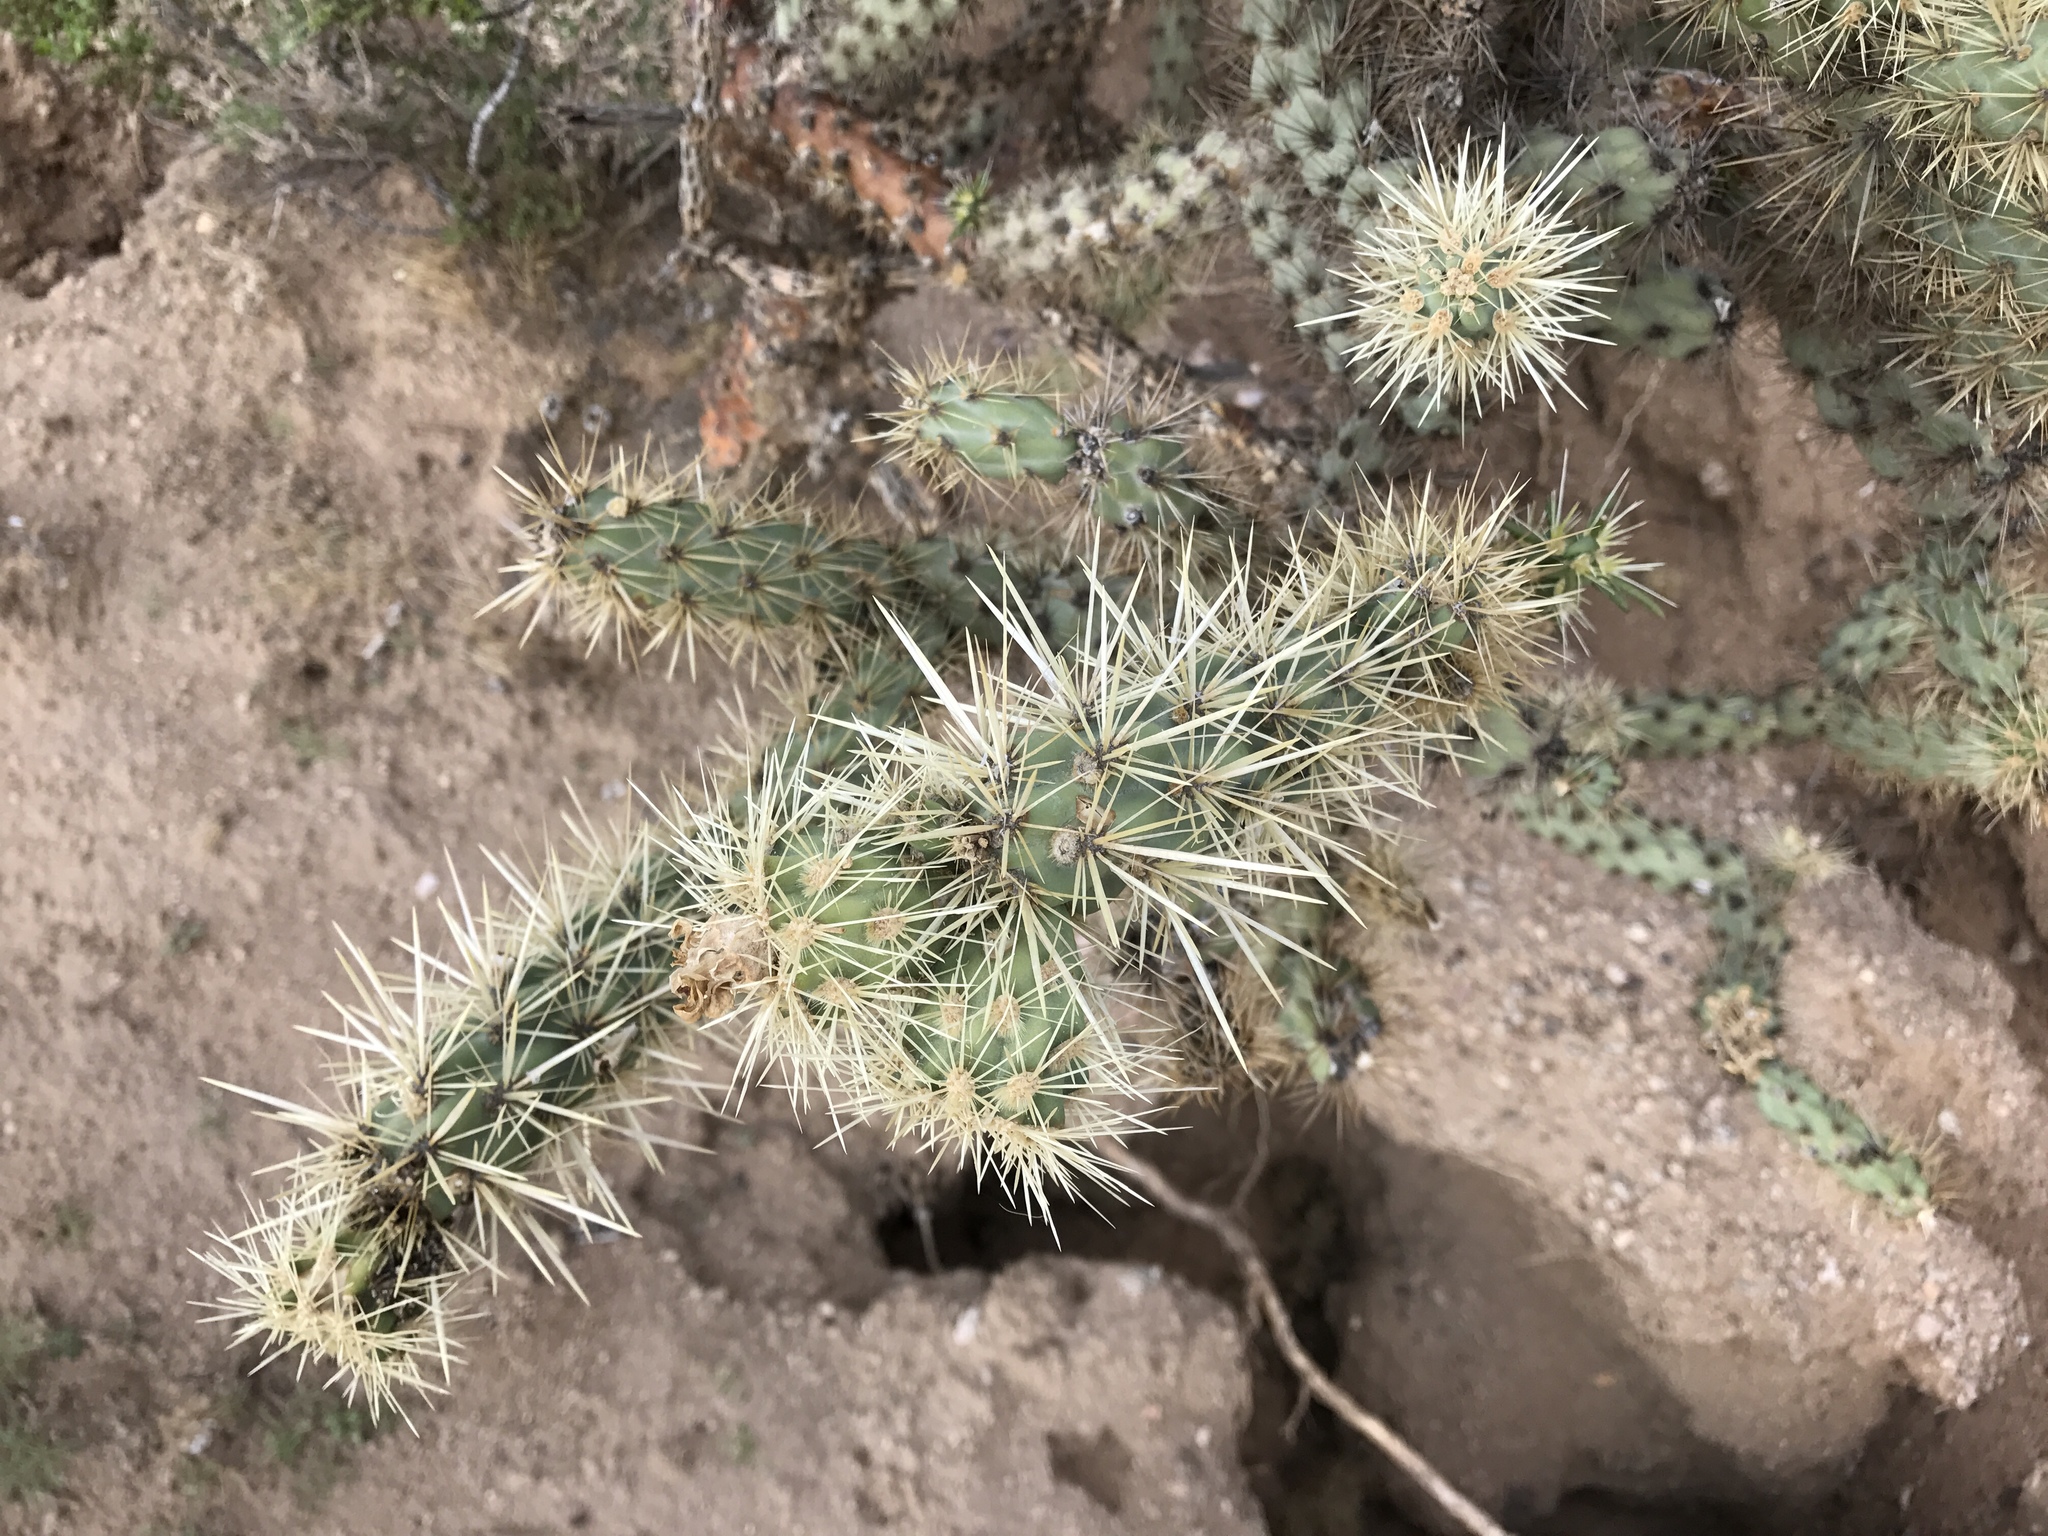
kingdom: Plantae
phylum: Tracheophyta
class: Magnoliopsida
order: Caryophyllales
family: Cactaceae
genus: Cylindropuntia
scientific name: Cylindropuntia acanthocarpa
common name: Buckhorn cholla
